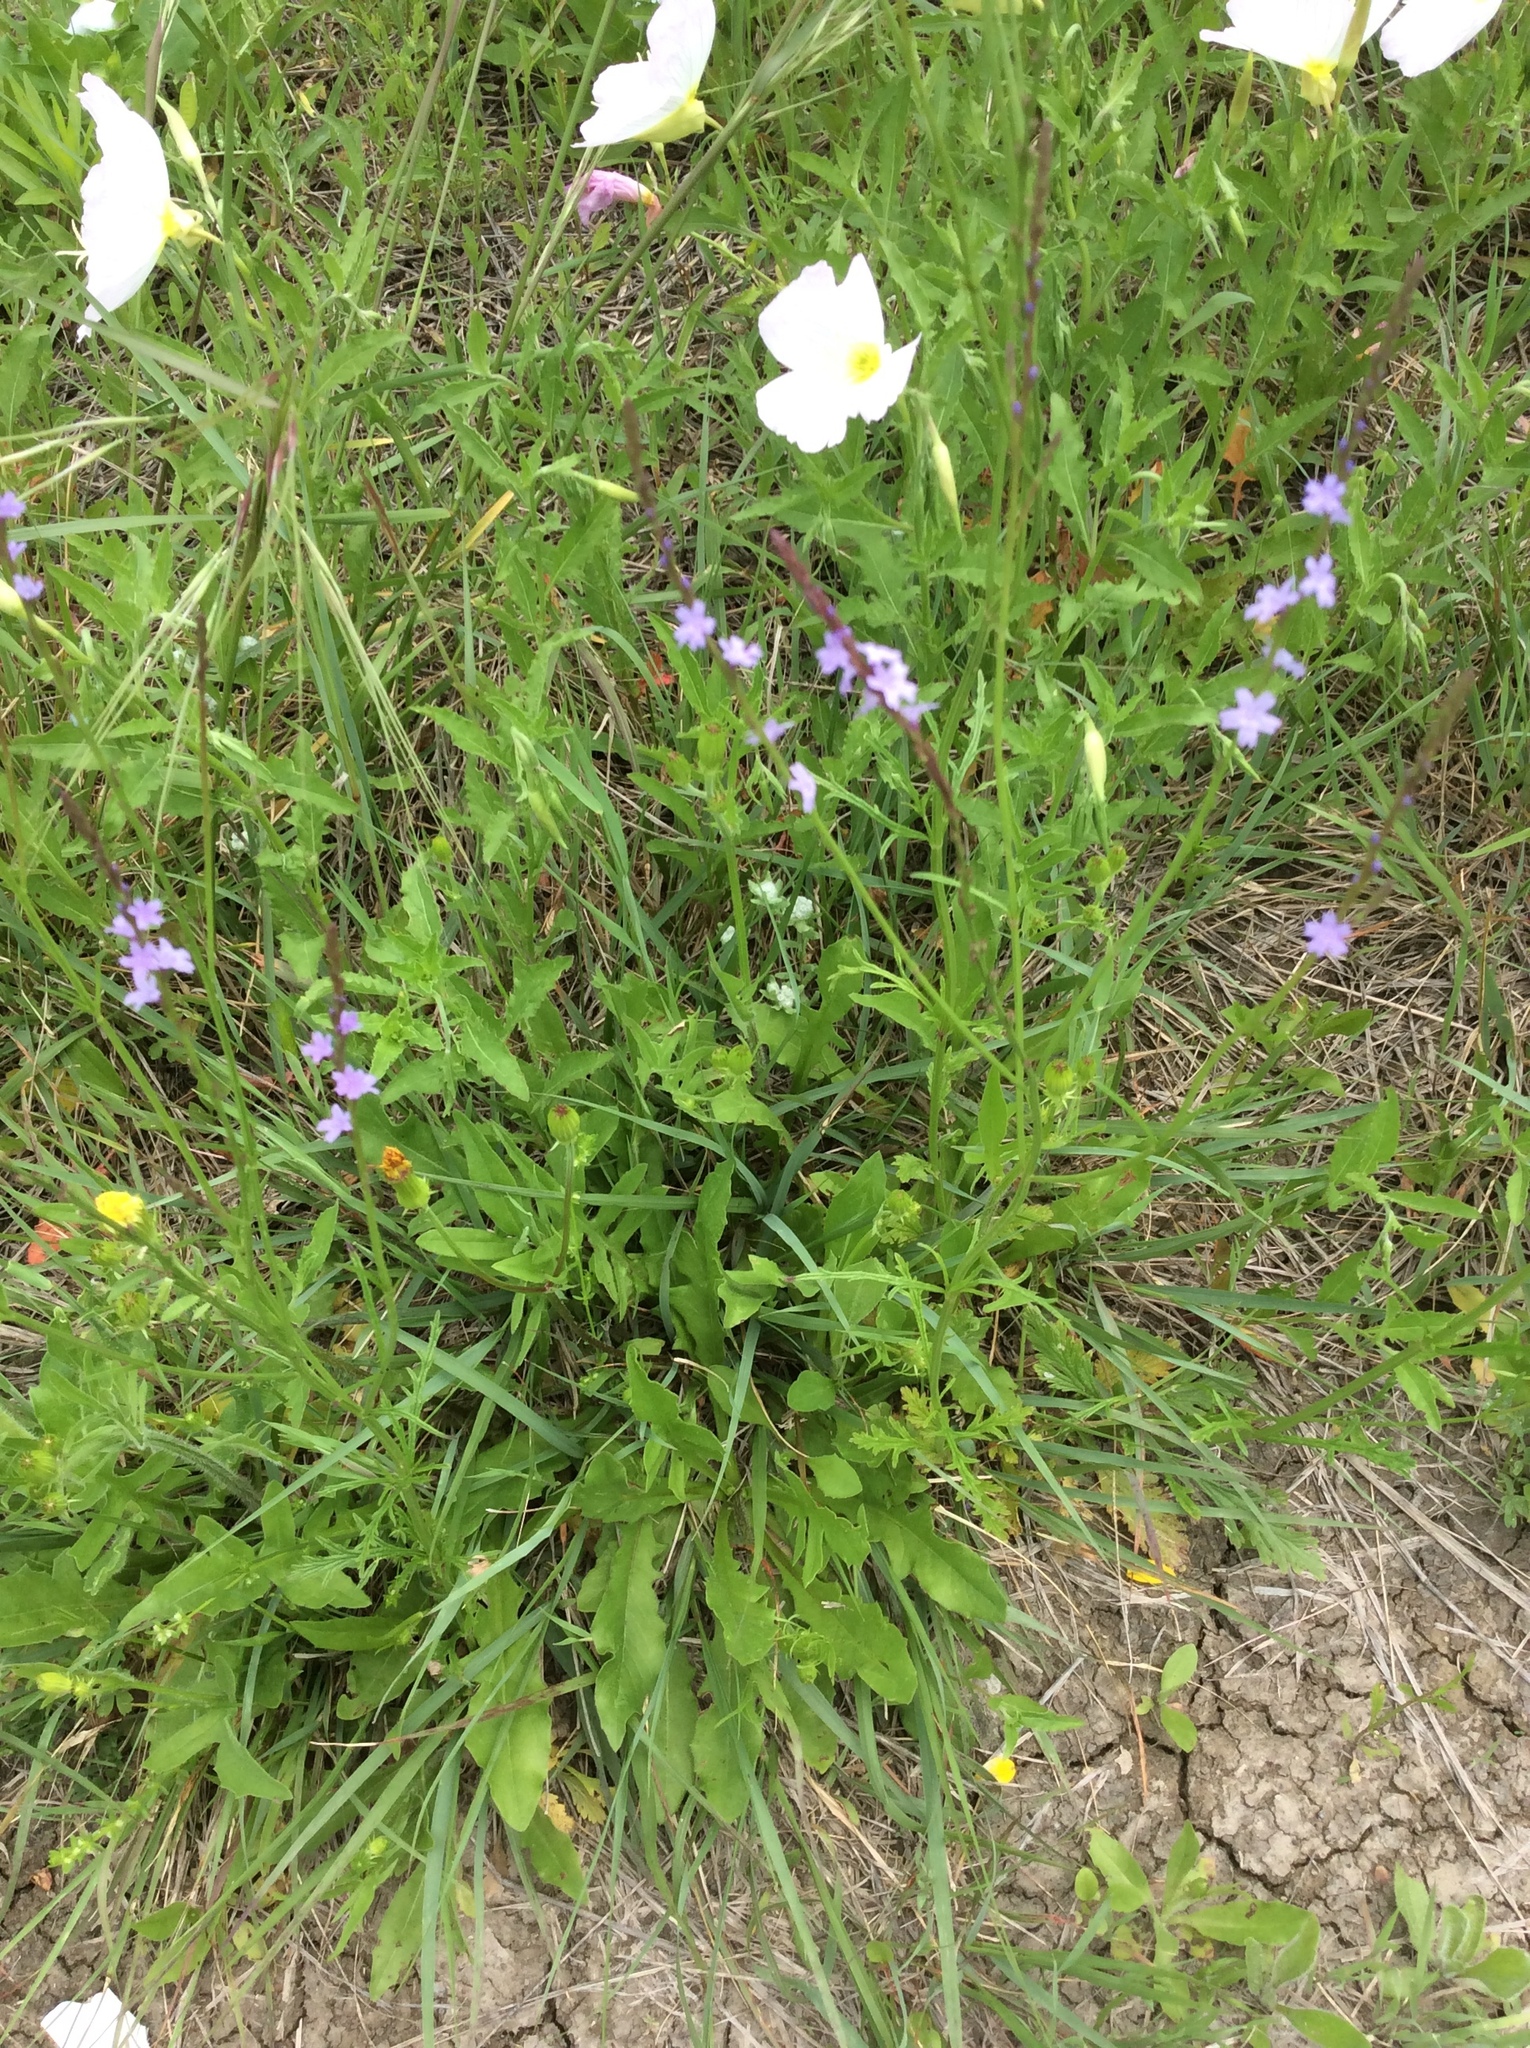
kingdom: Plantae
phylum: Tracheophyta
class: Magnoliopsida
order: Lamiales
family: Verbenaceae
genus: Verbena
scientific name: Verbena halei
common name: Texas vervain
